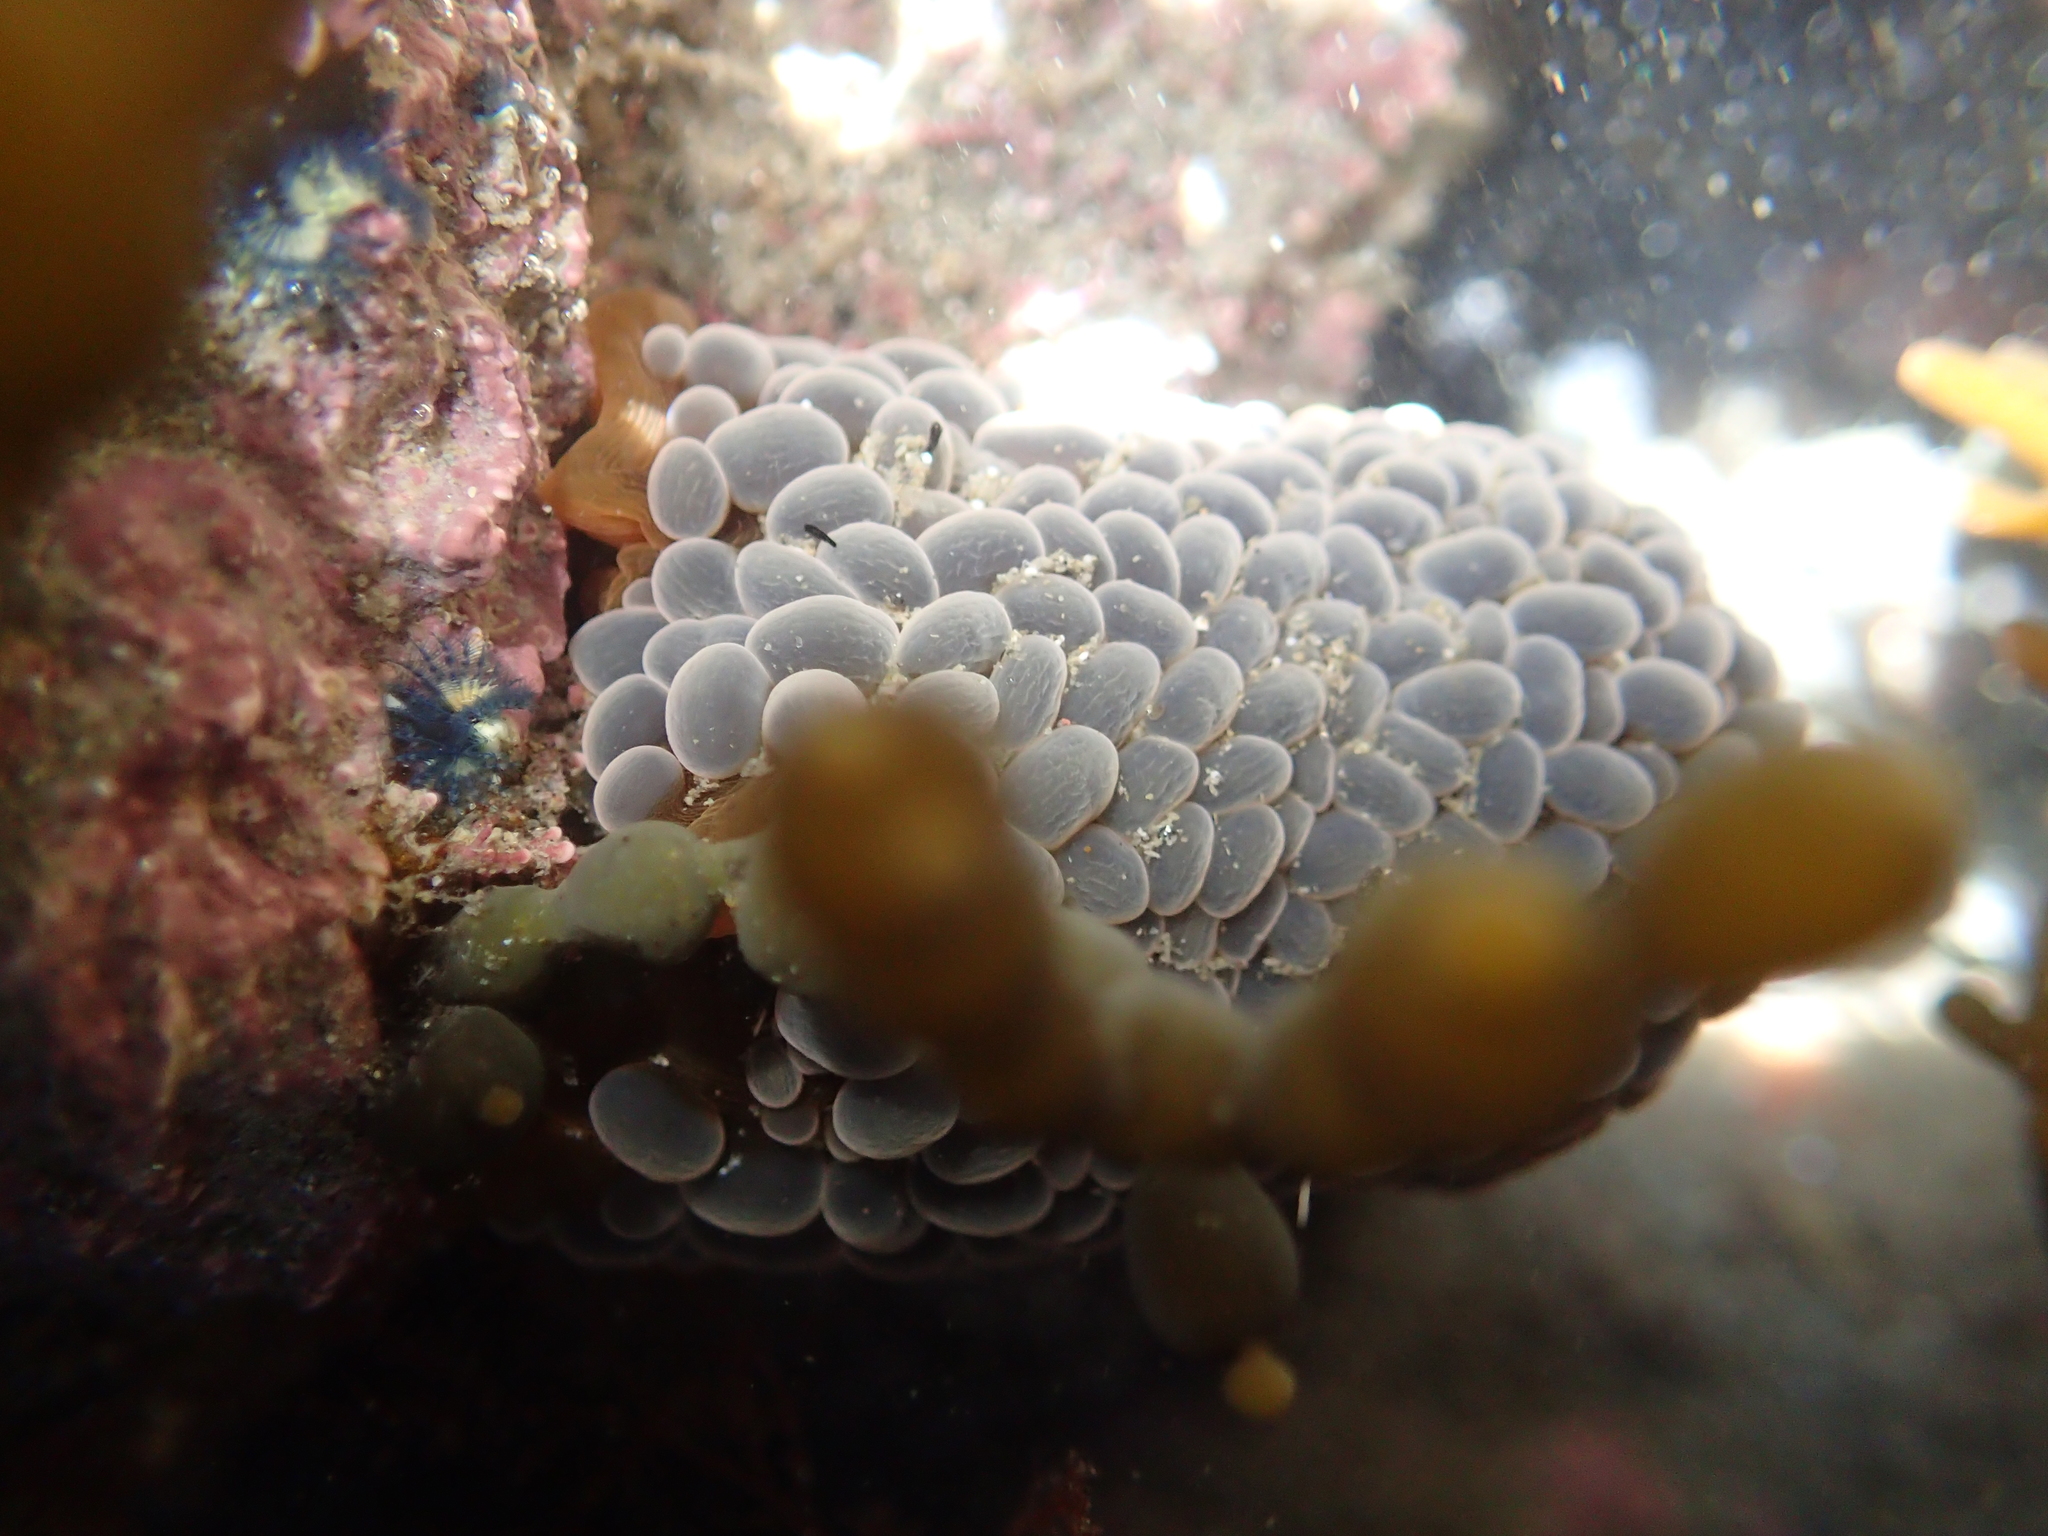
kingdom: Animalia
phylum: Cnidaria
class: Anthozoa
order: Actiniaria
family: Actiniidae
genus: Phlyctenactis
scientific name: Phlyctenactis tuberculosa
